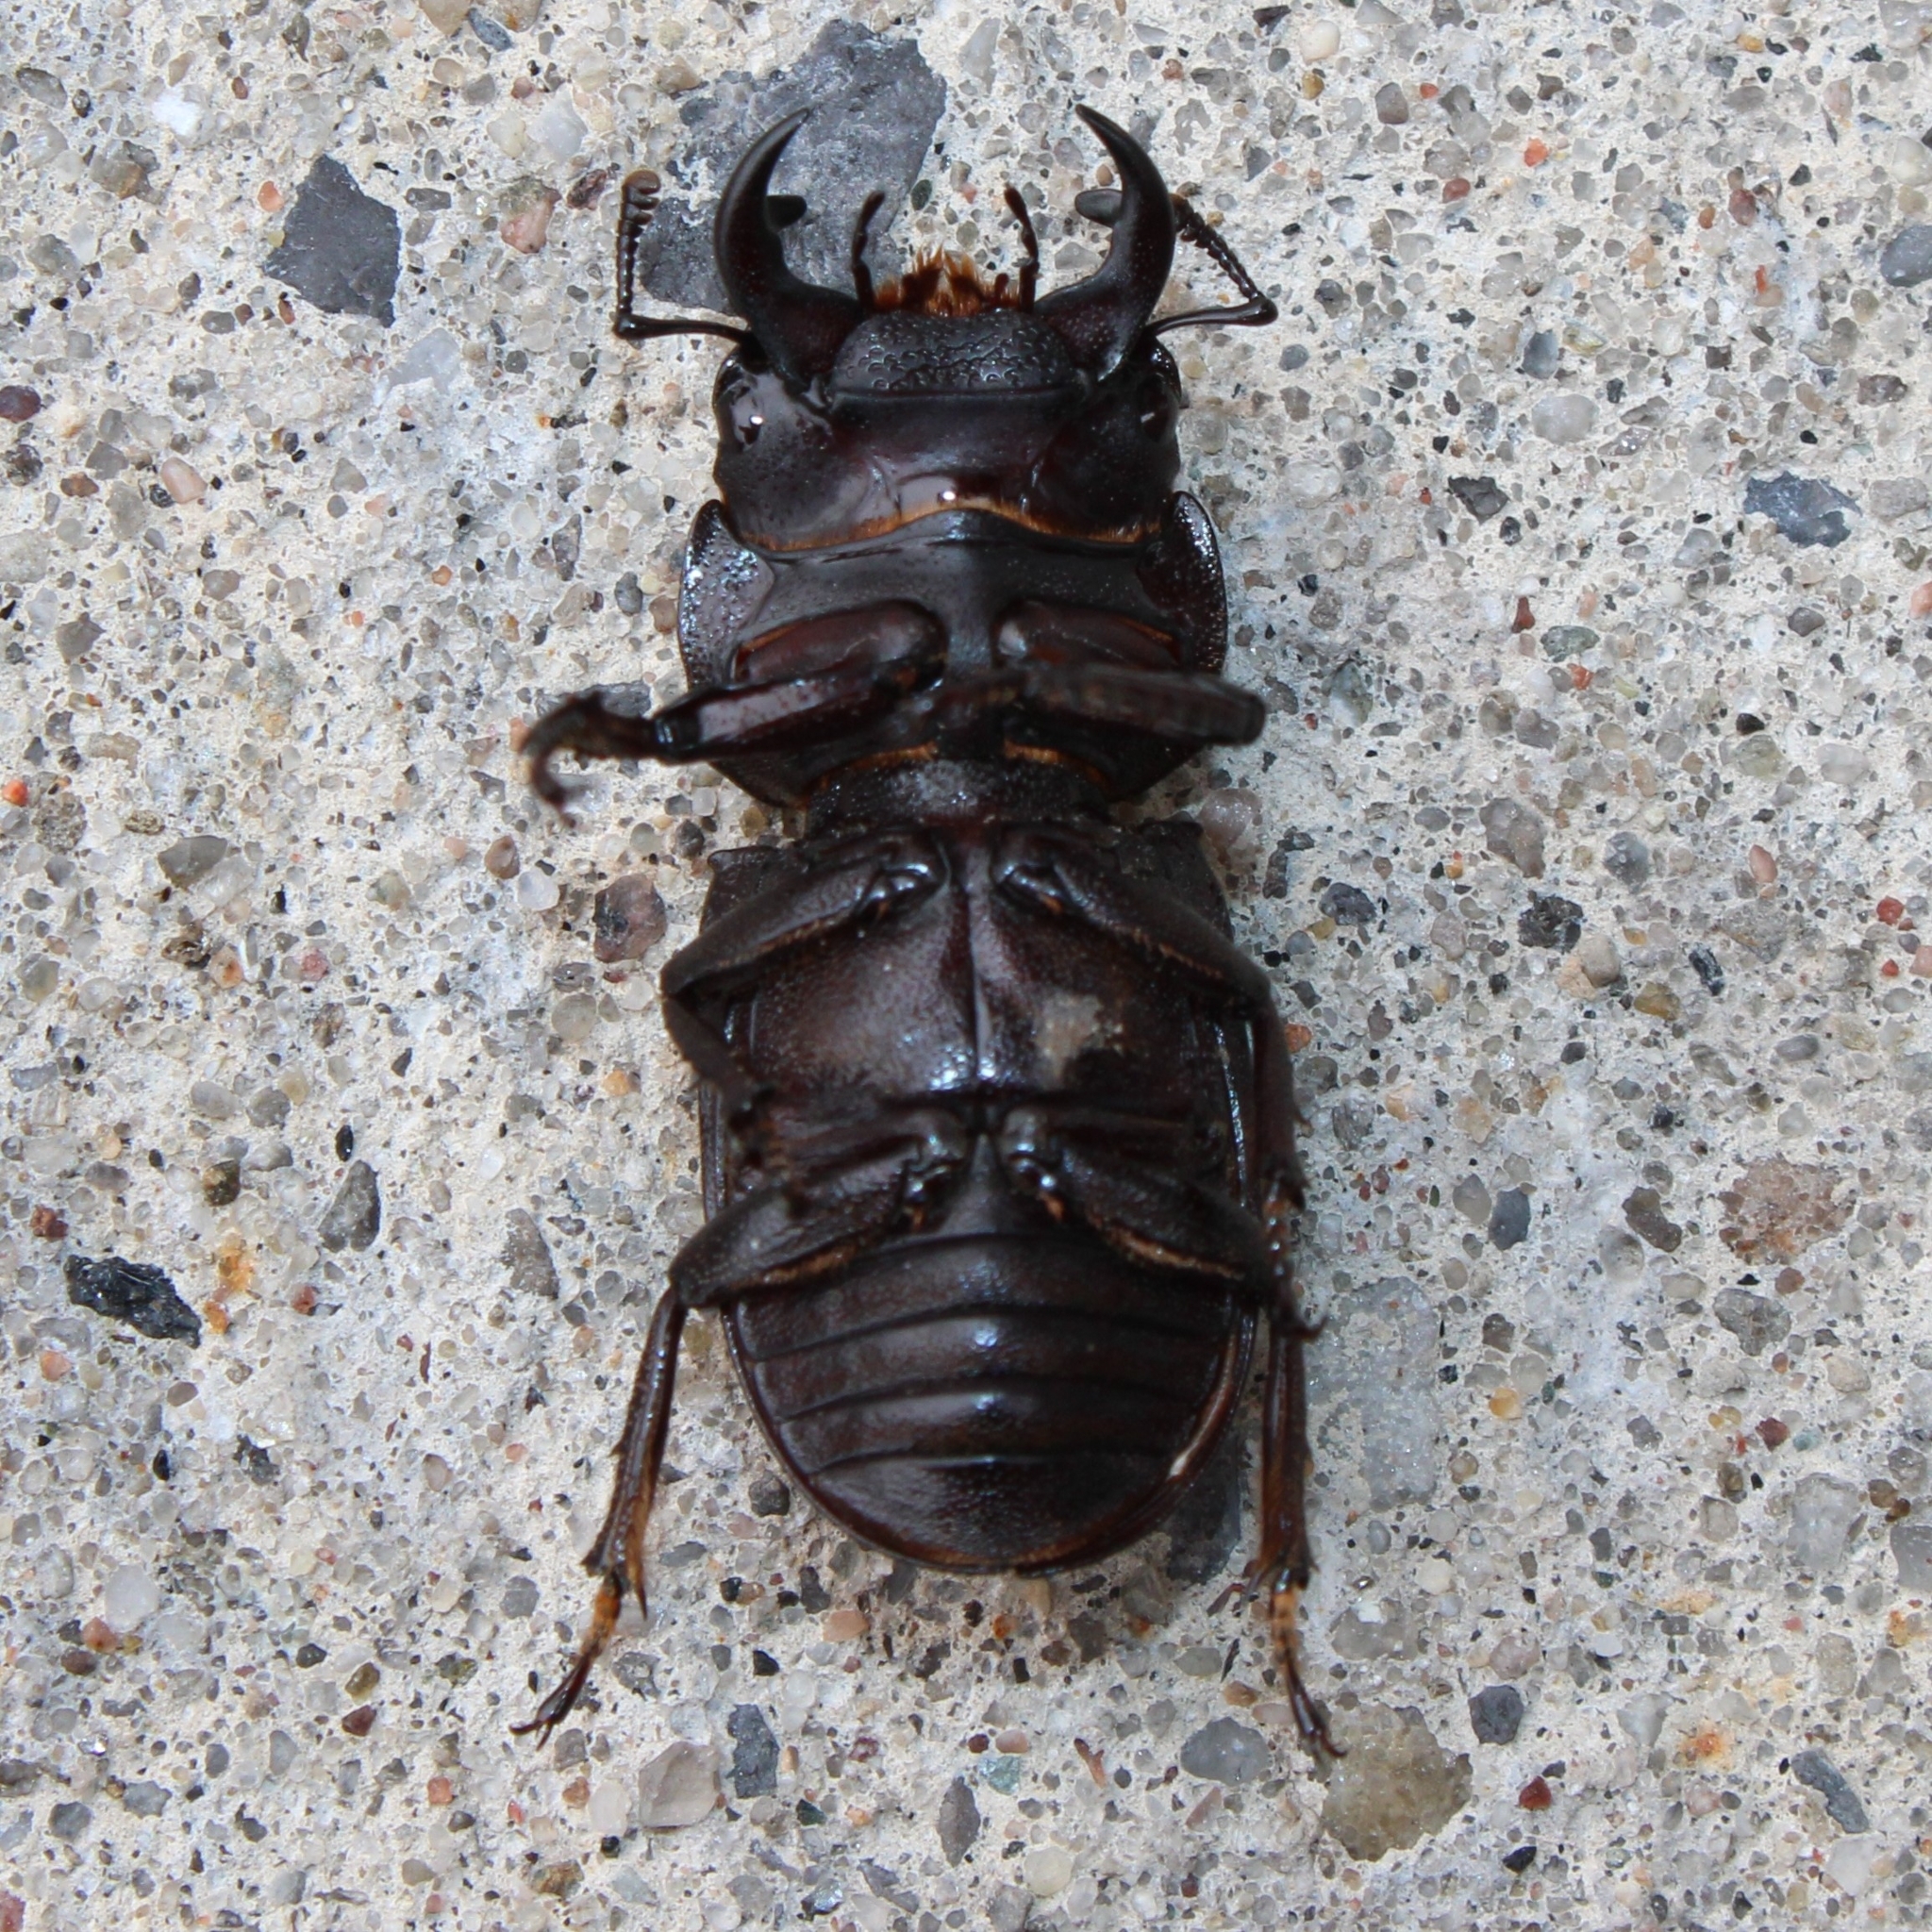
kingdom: Animalia
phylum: Arthropoda
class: Insecta
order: Coleoptera
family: Lucanidae
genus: Dorcus
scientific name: Dorcus parallelus
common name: Antelope beetle
